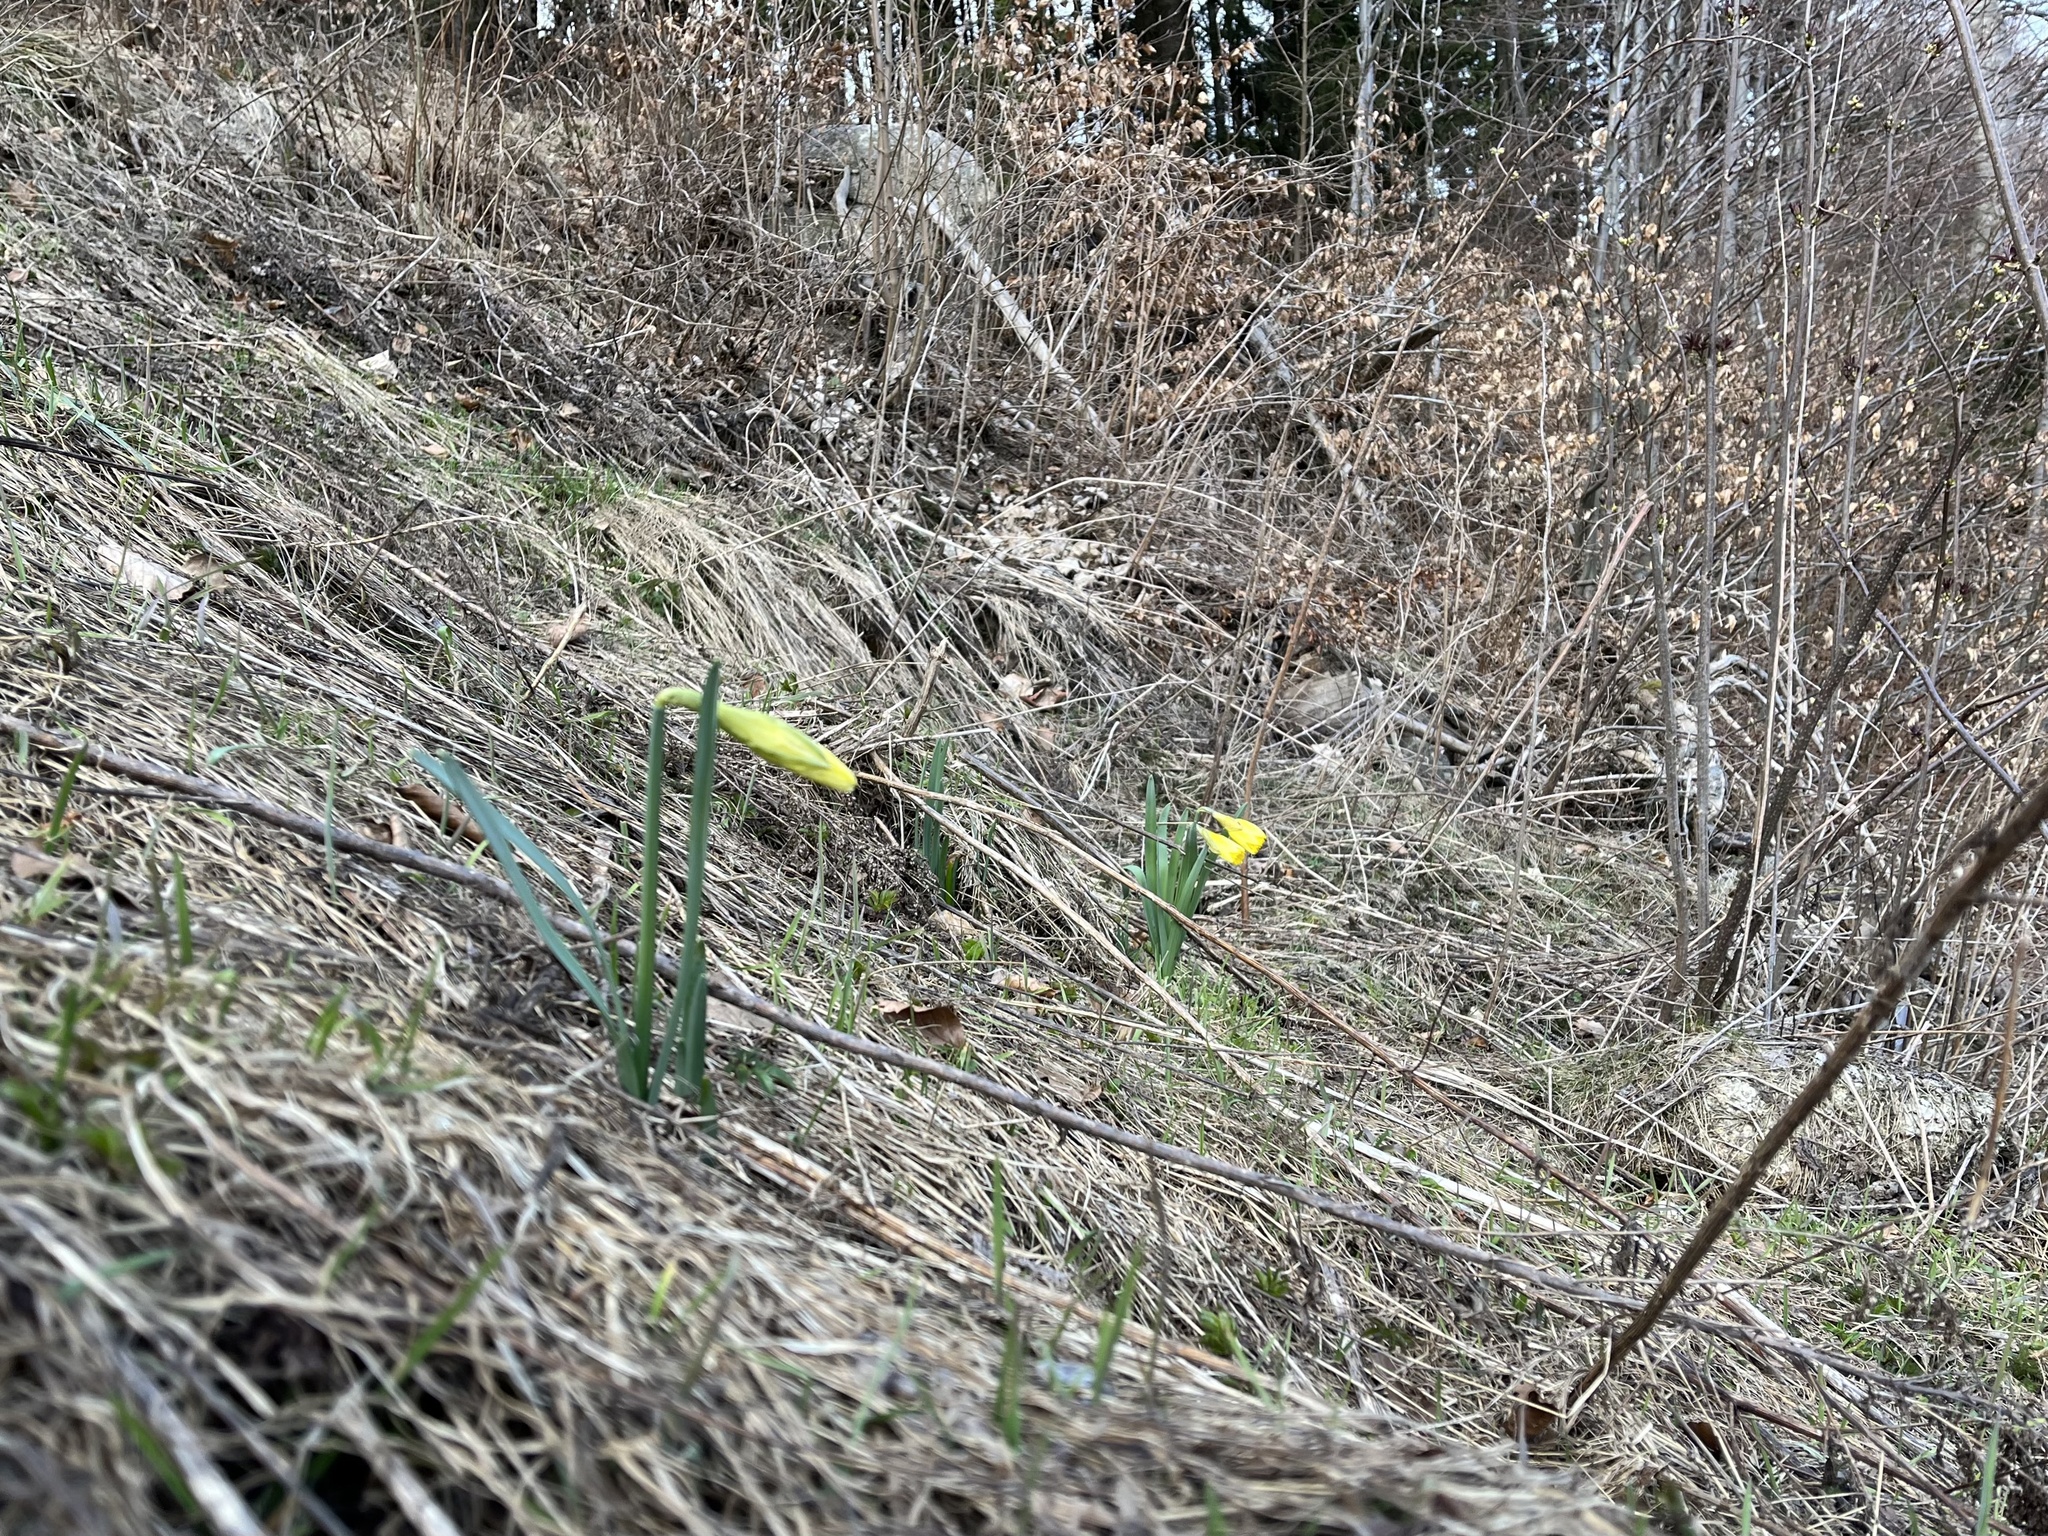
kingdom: Plantae
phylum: Tracheophyta
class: Liliopsida
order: Asparagales
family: Amaryllidaceae
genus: Narcissus
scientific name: Narcissus pseudonarcissus
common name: Daffodil
